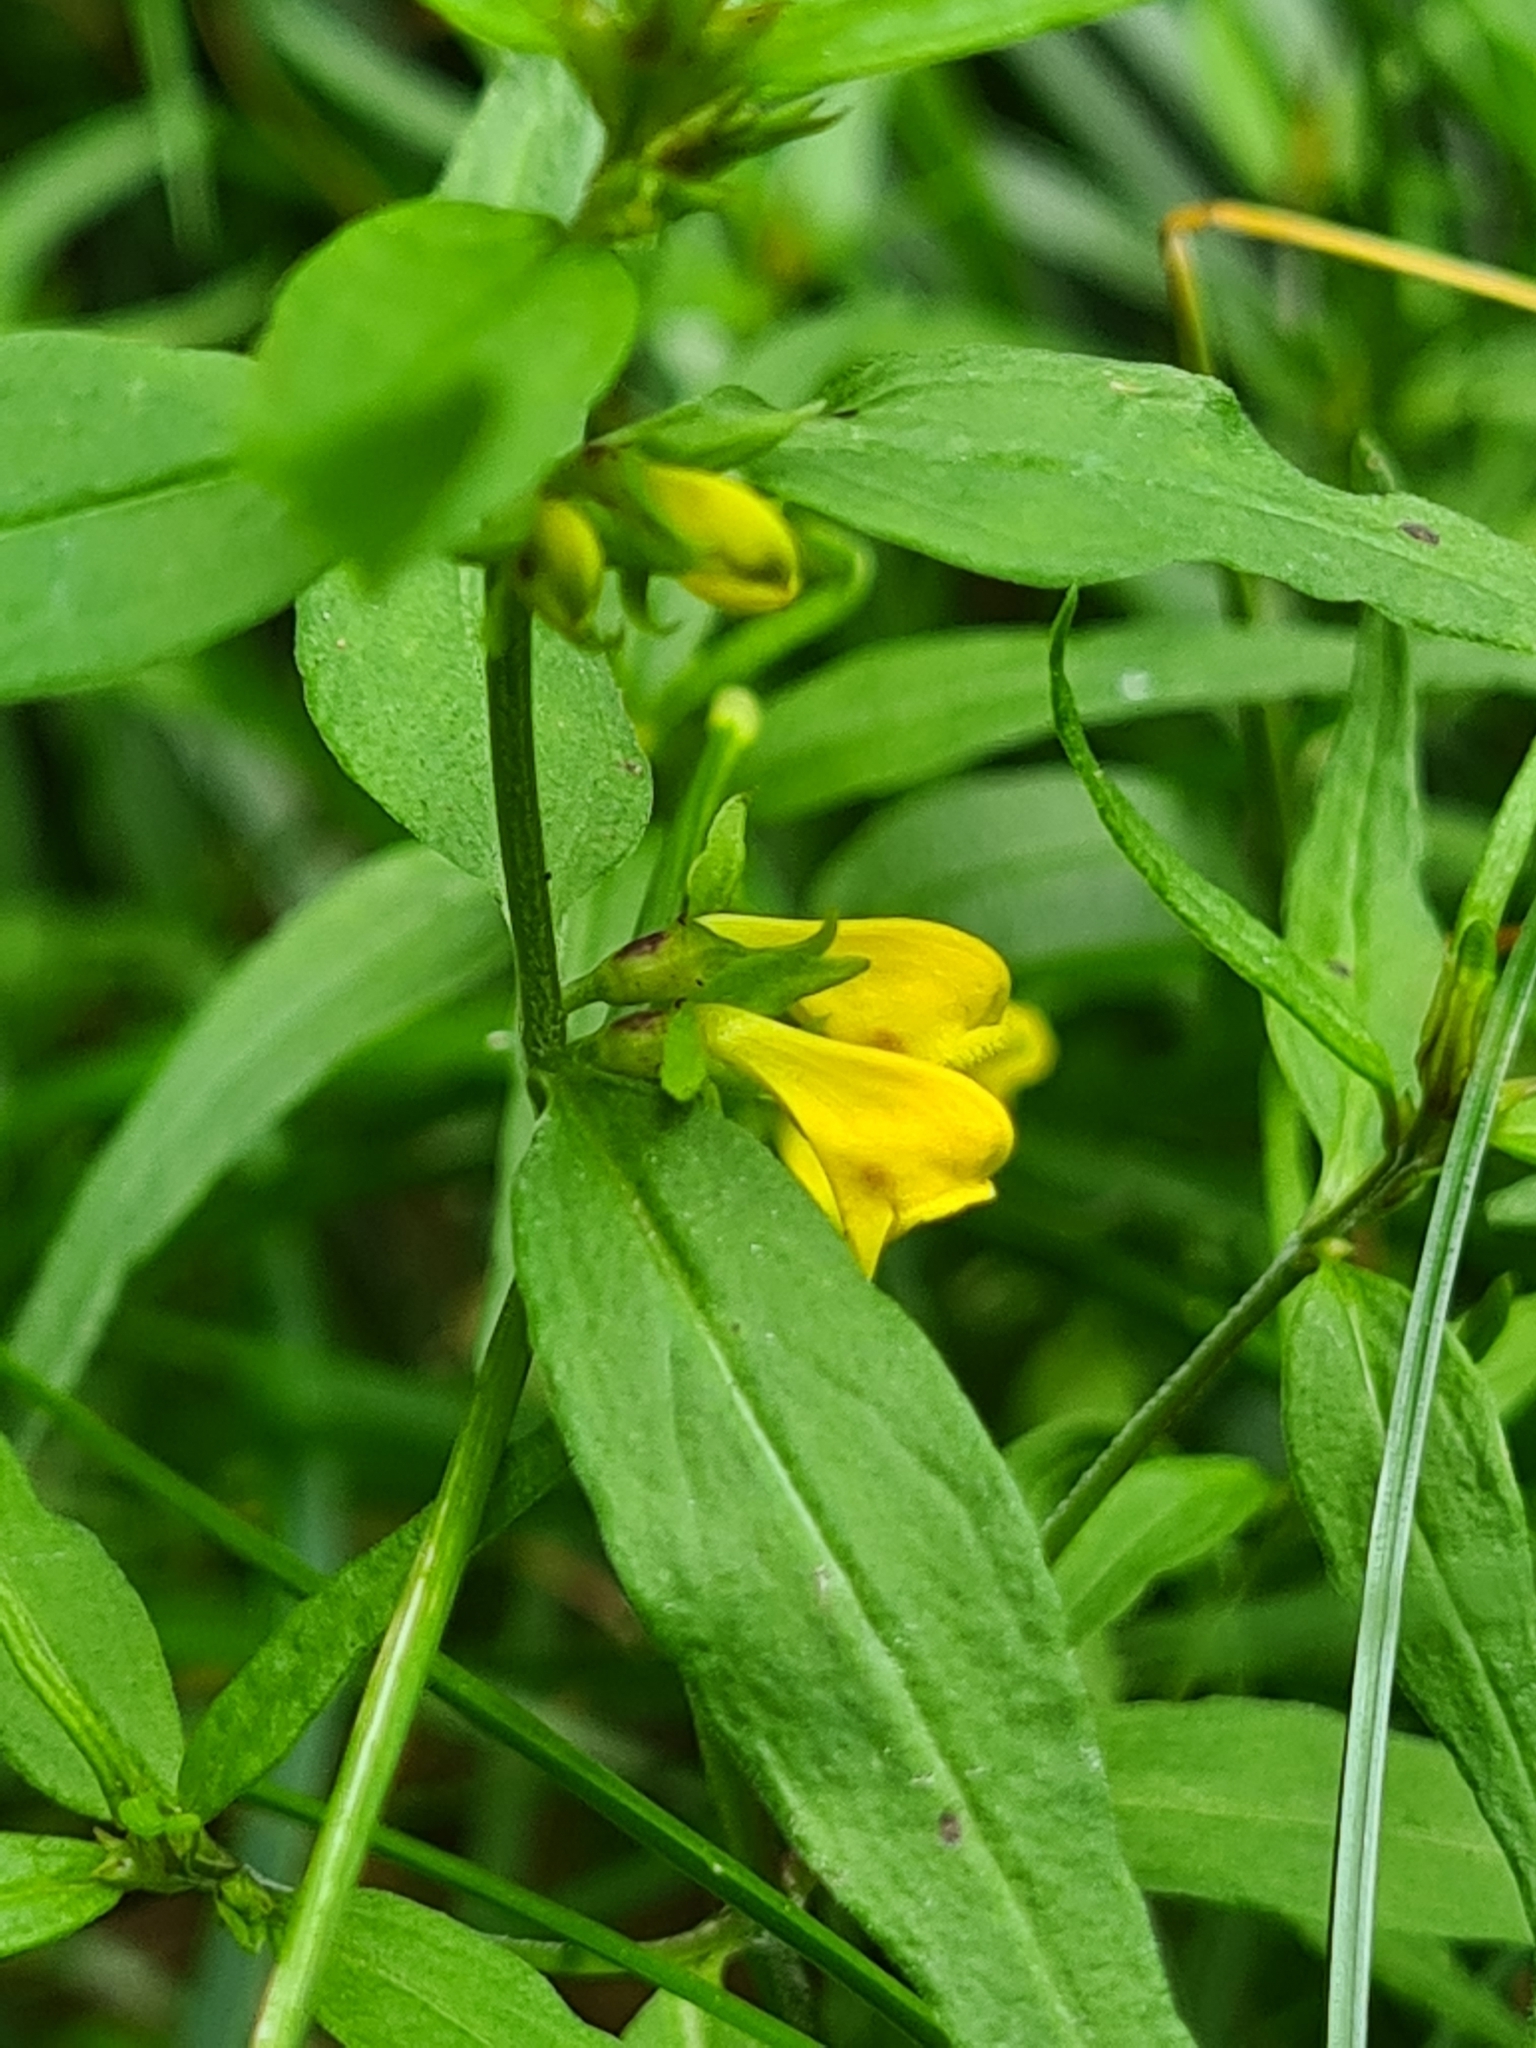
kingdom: Plantae
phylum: Tracheophyta
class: Magnoliopsida
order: Lamiales
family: Orobanchaceae
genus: Melampyrum
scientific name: Melampyrum sylvaticum
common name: Small cow-wheat
